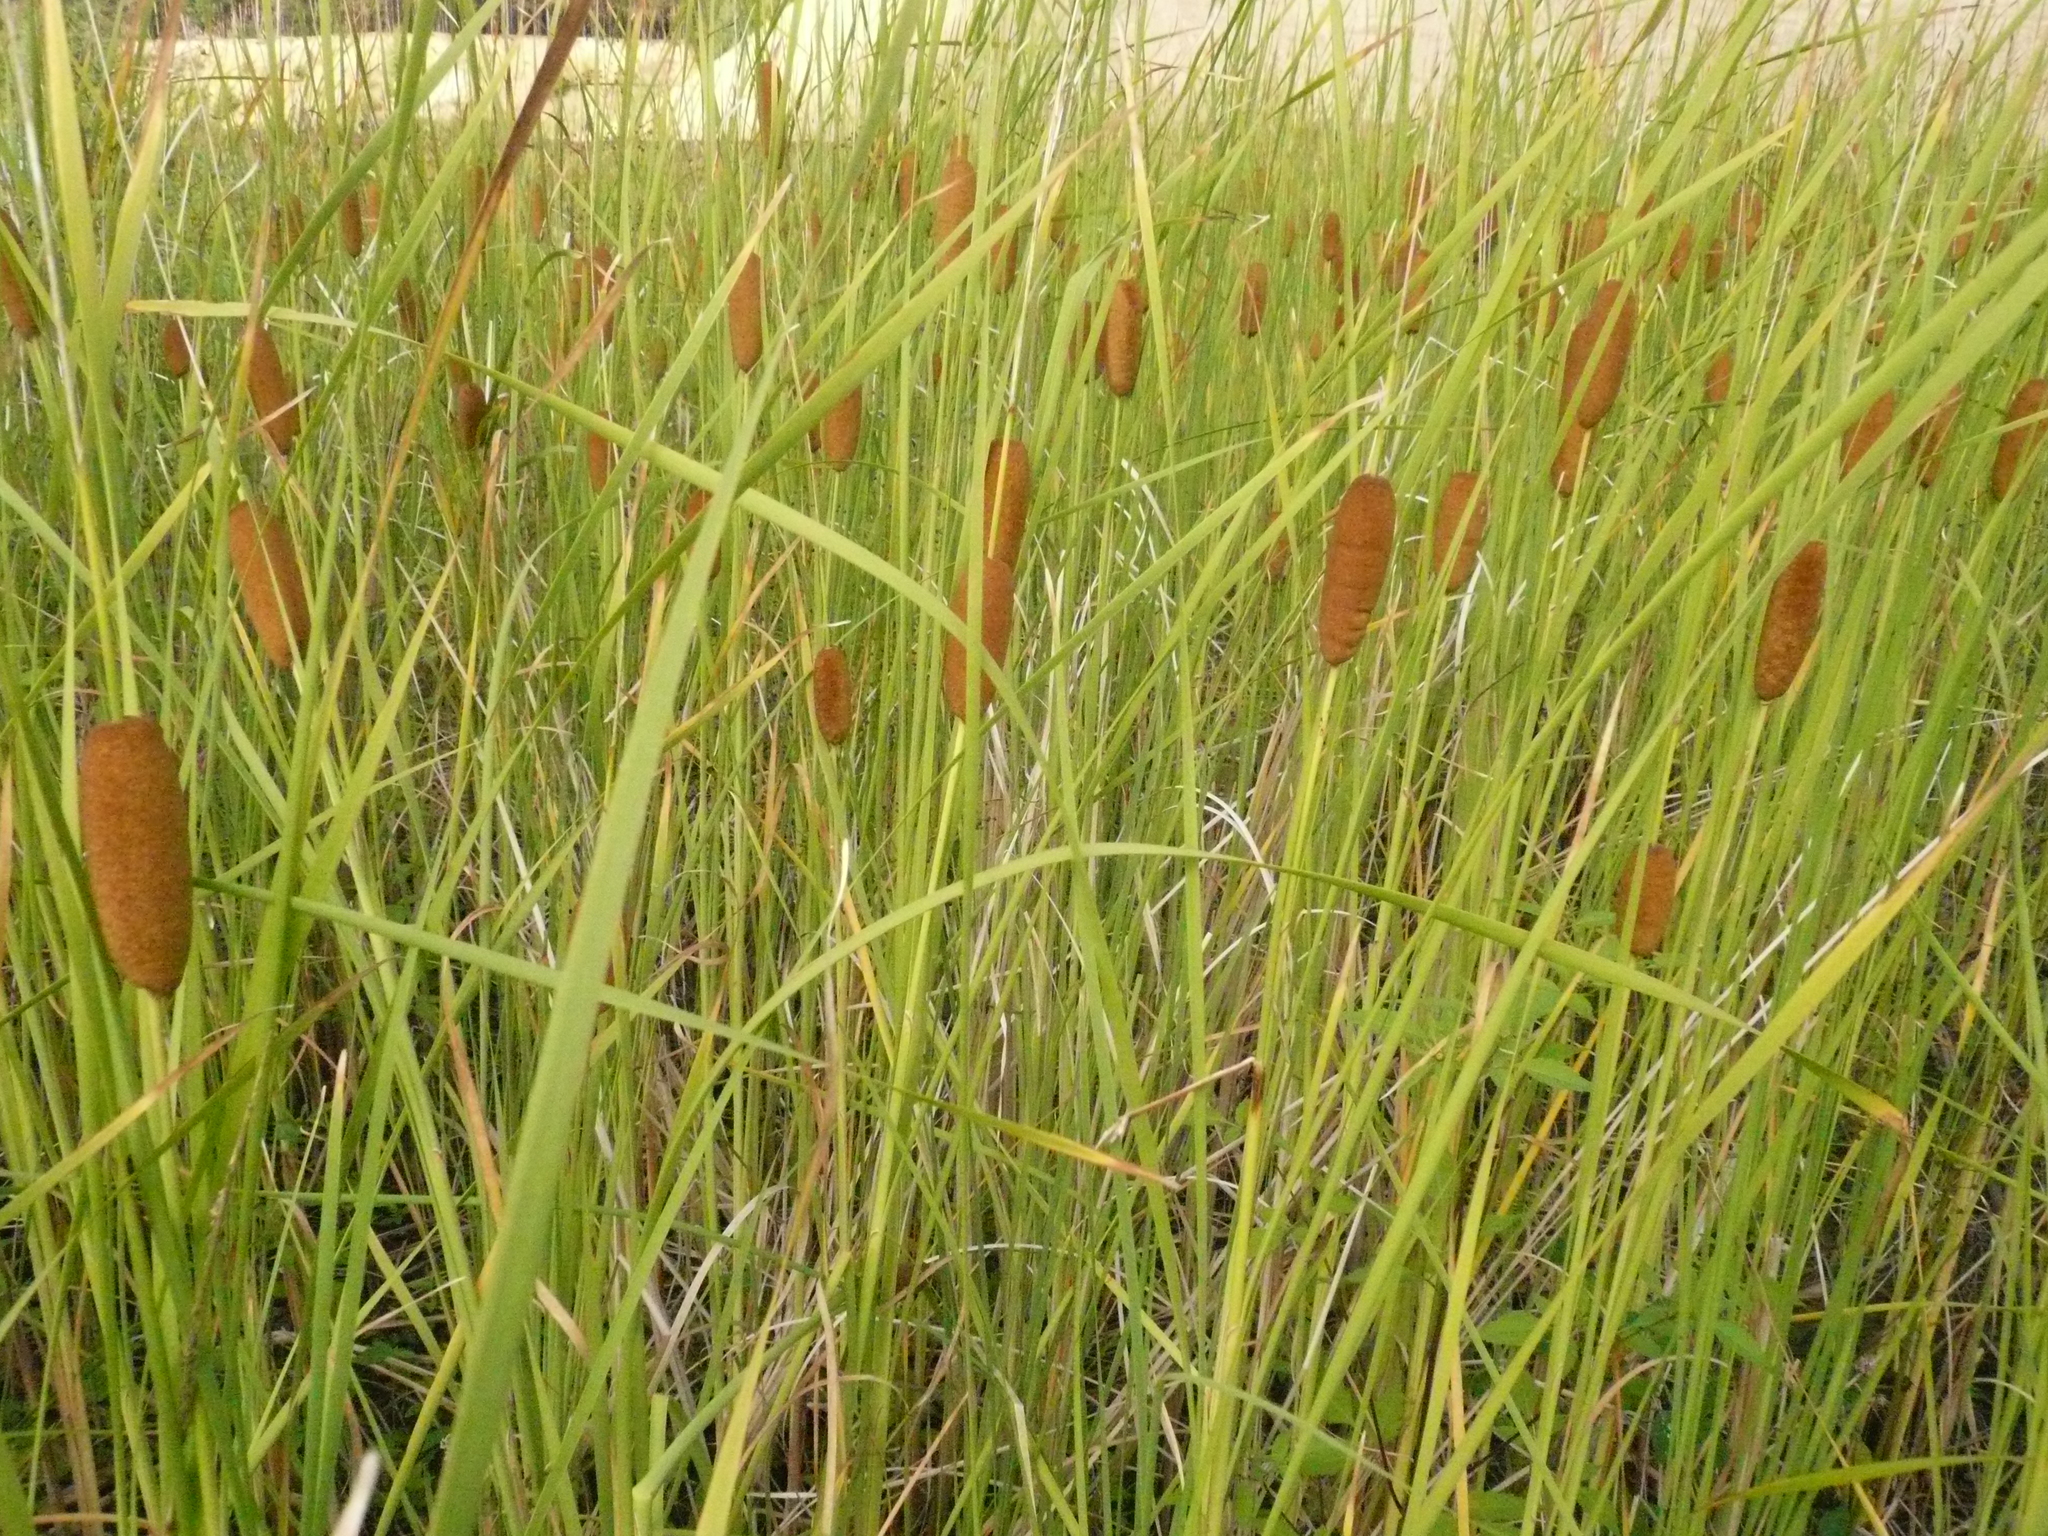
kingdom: Plantae
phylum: Tracheophyta
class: Liliopsida
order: Poales
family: Typhaceae
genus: Typha
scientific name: Typha laxmannii
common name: Laxman’s bulrush
